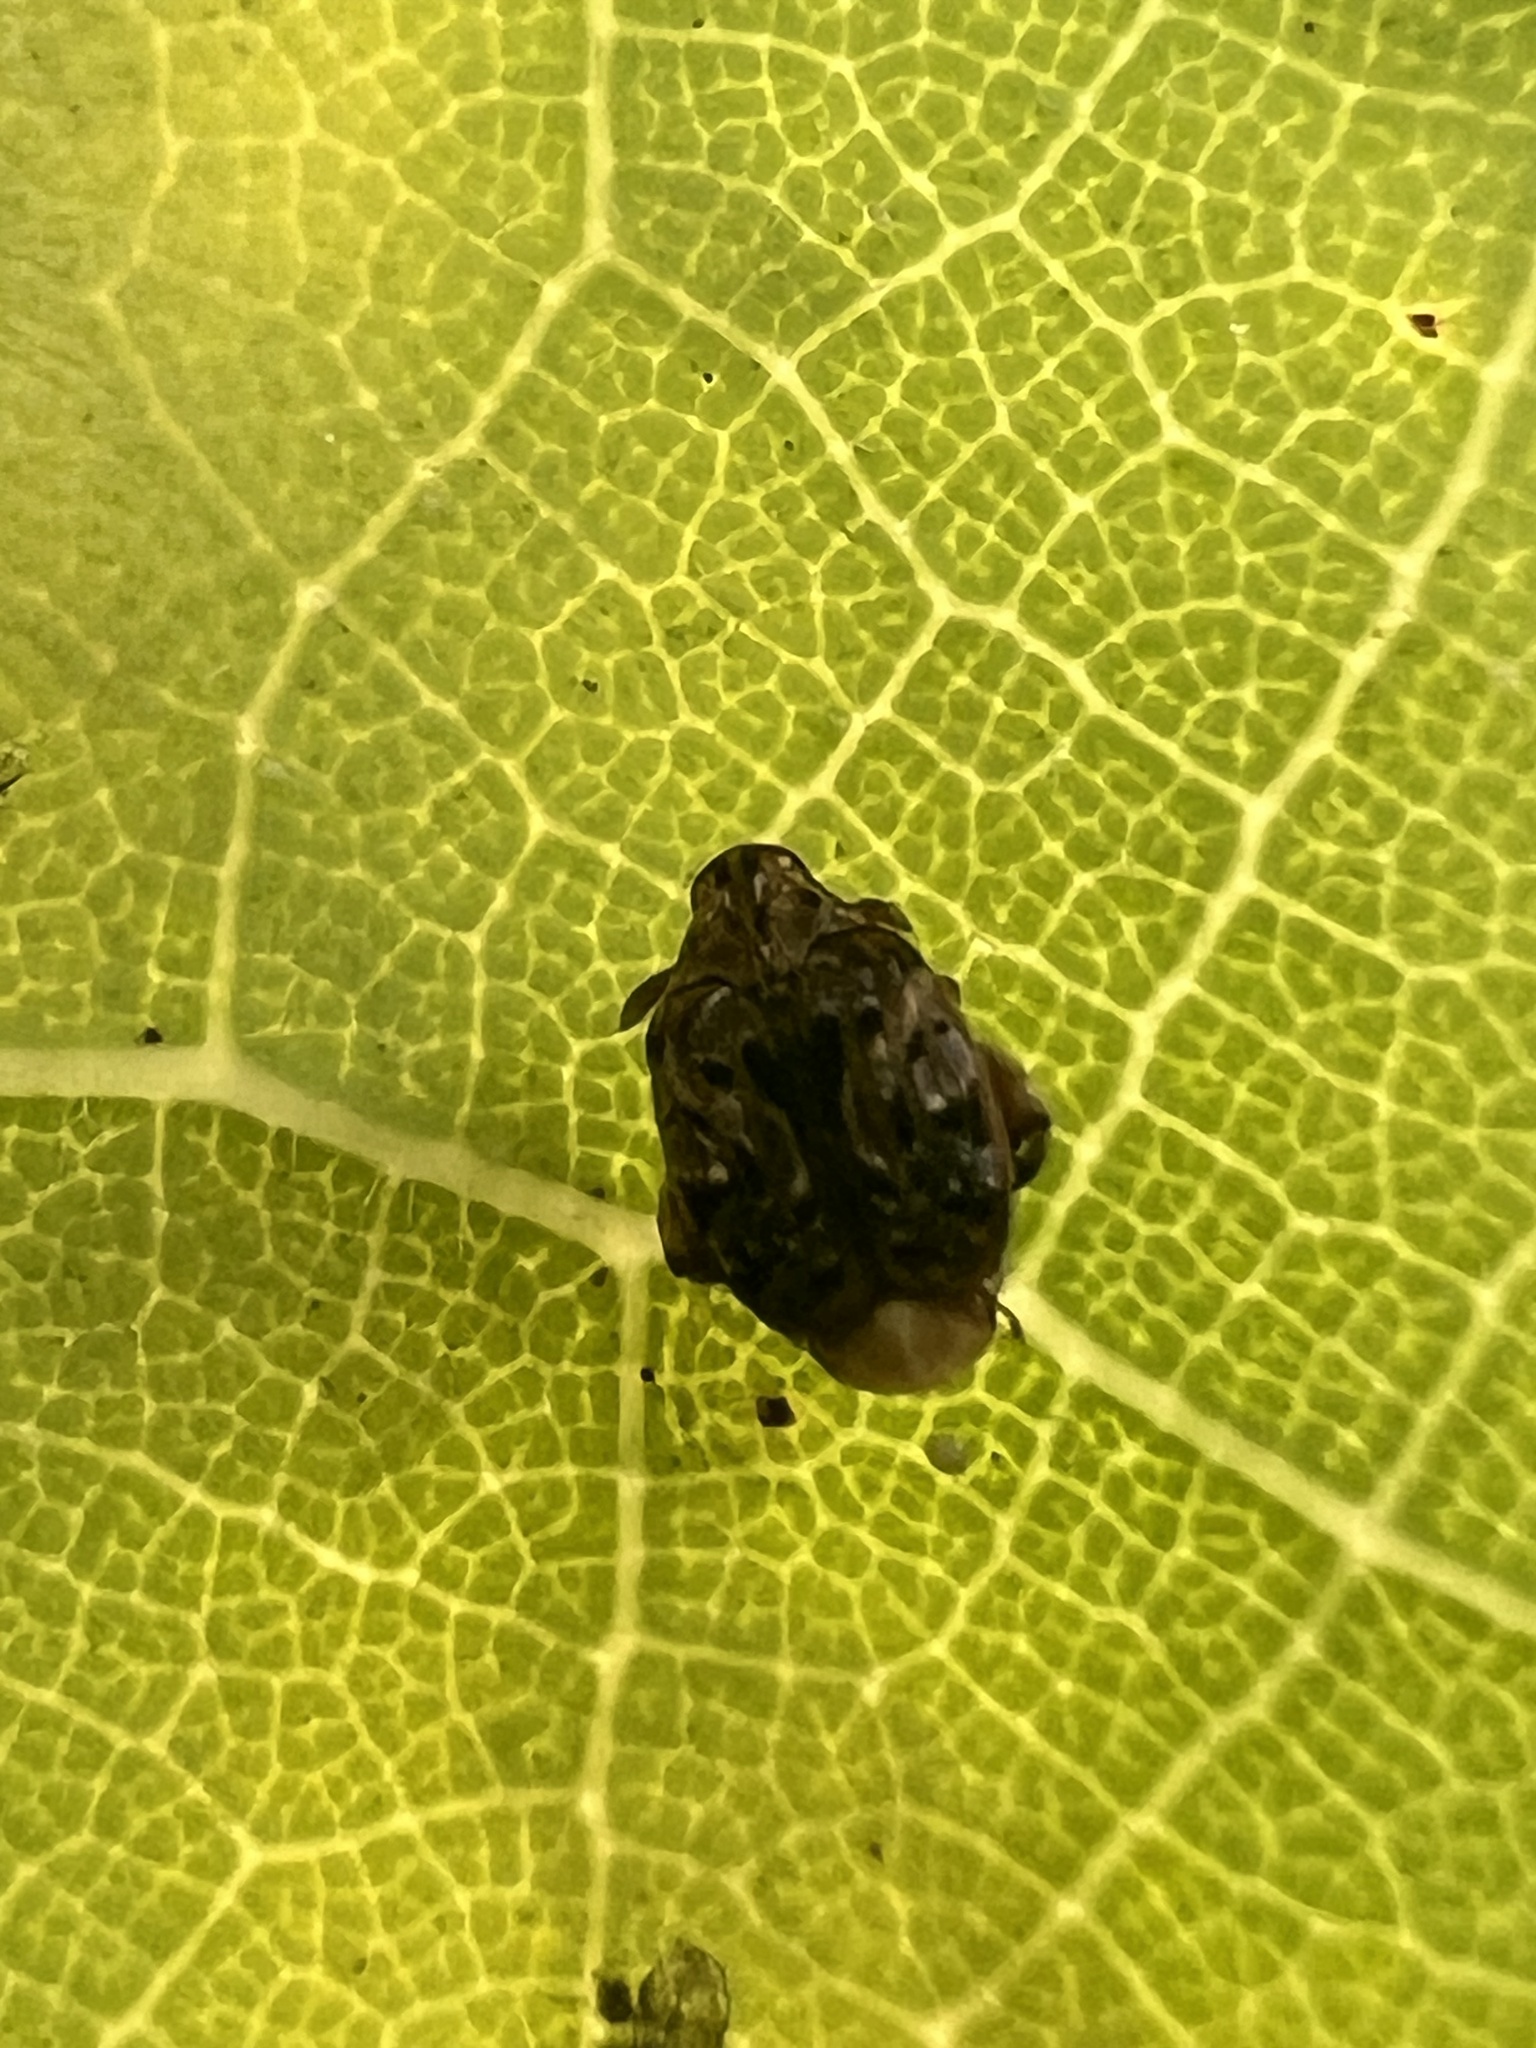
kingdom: Animalia
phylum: Arthropoda
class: Insecta
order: Coleoptera
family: Chrysomelidae
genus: Gibbobruchus
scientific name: Gibbobruchus mimus
